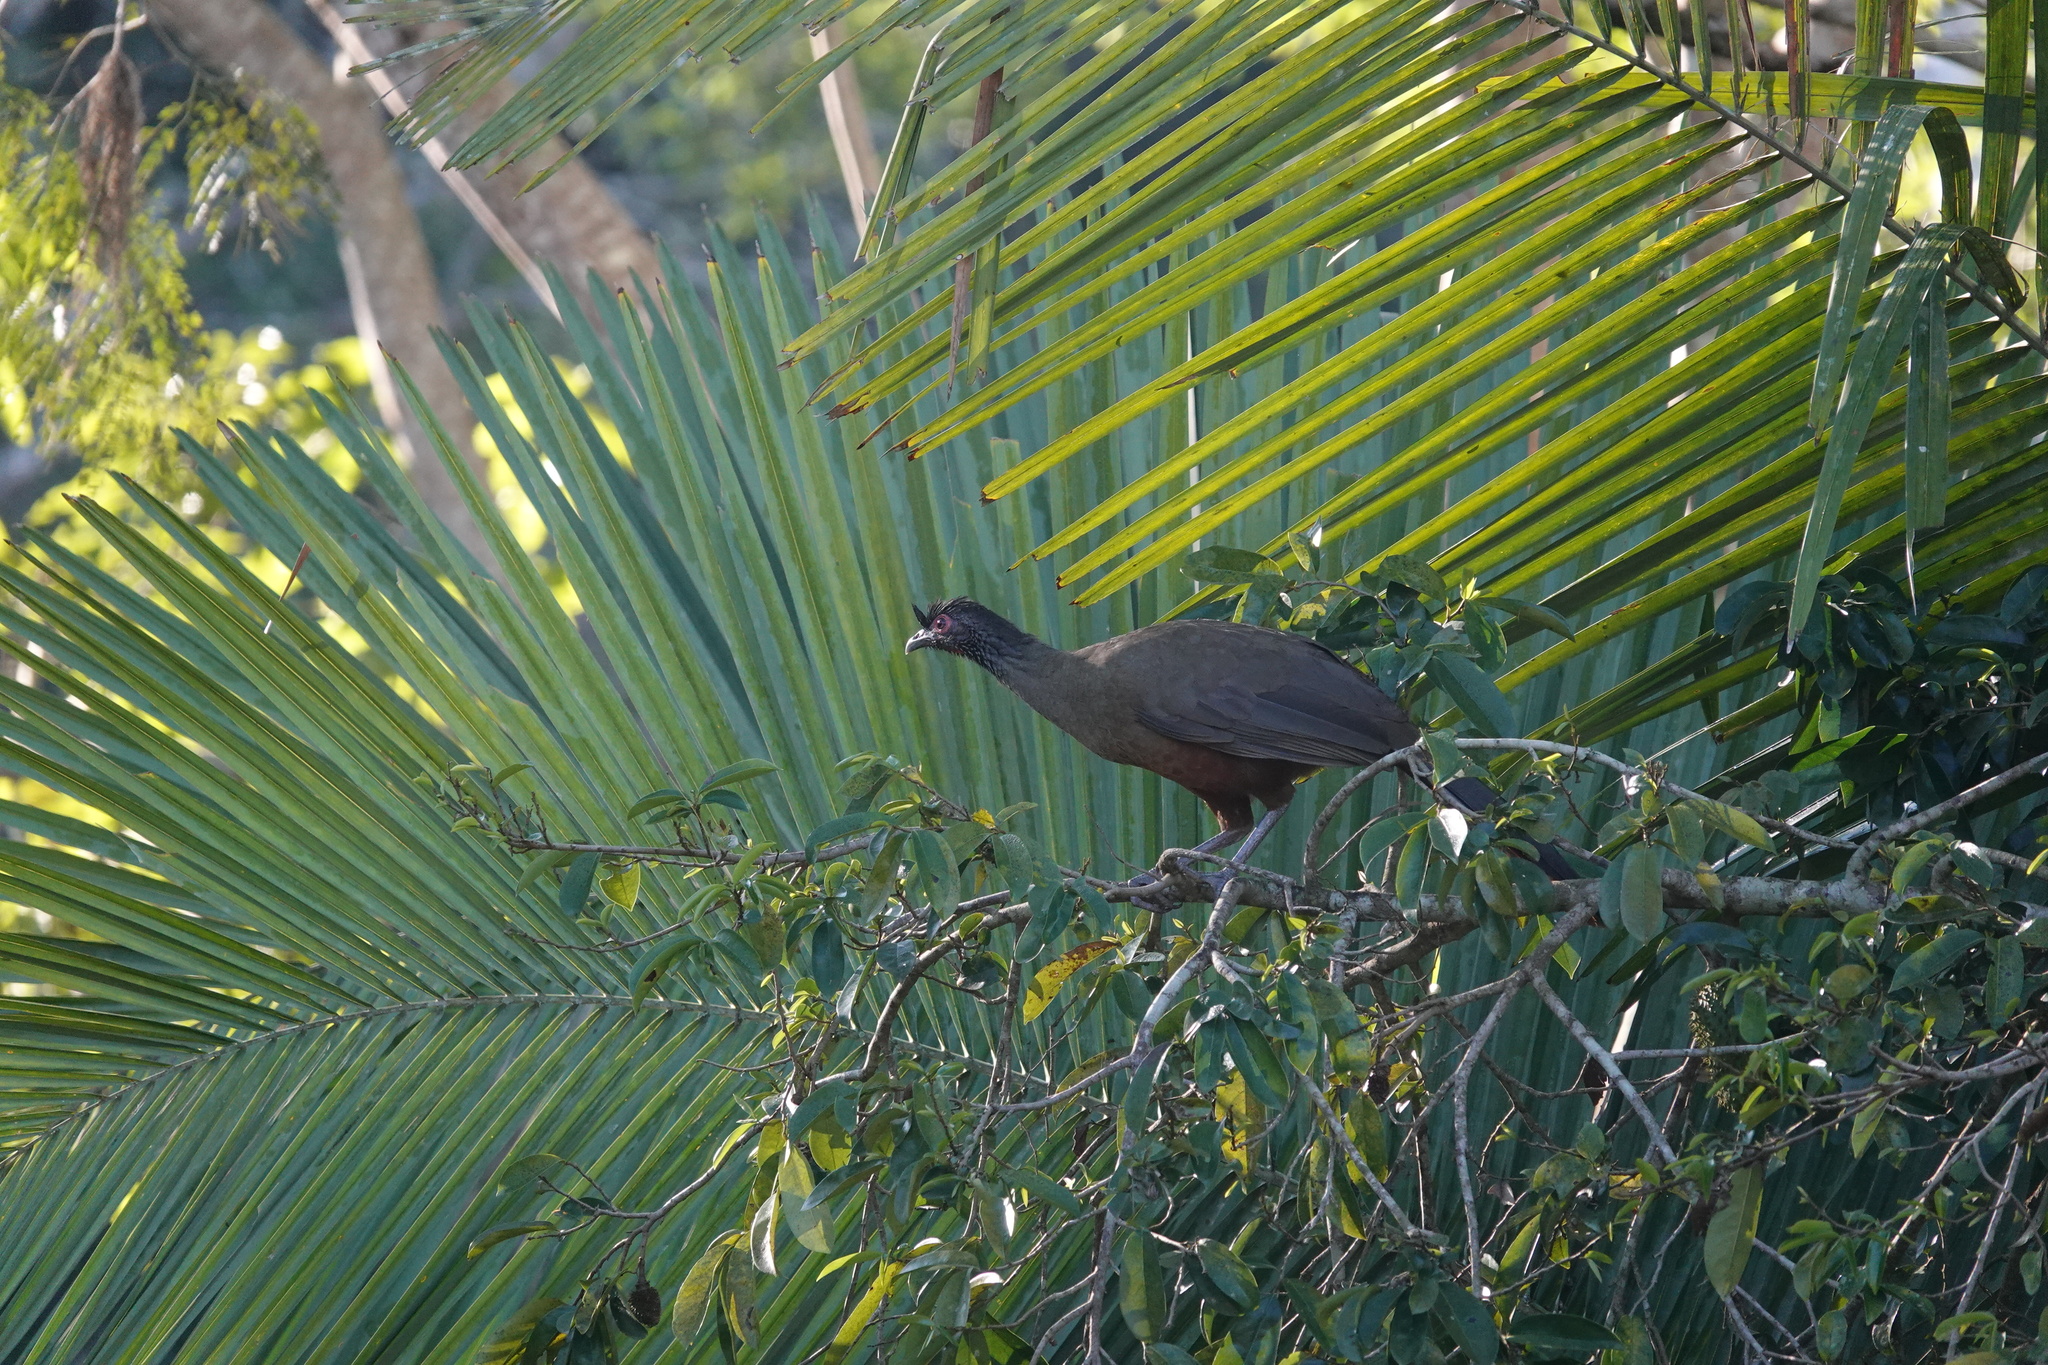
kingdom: Animalia
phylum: Chordata
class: Aves
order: Galliformes
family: Cracidae
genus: Ortalis
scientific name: Ortalis wagleri
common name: Rufous-bellied chachalaca
